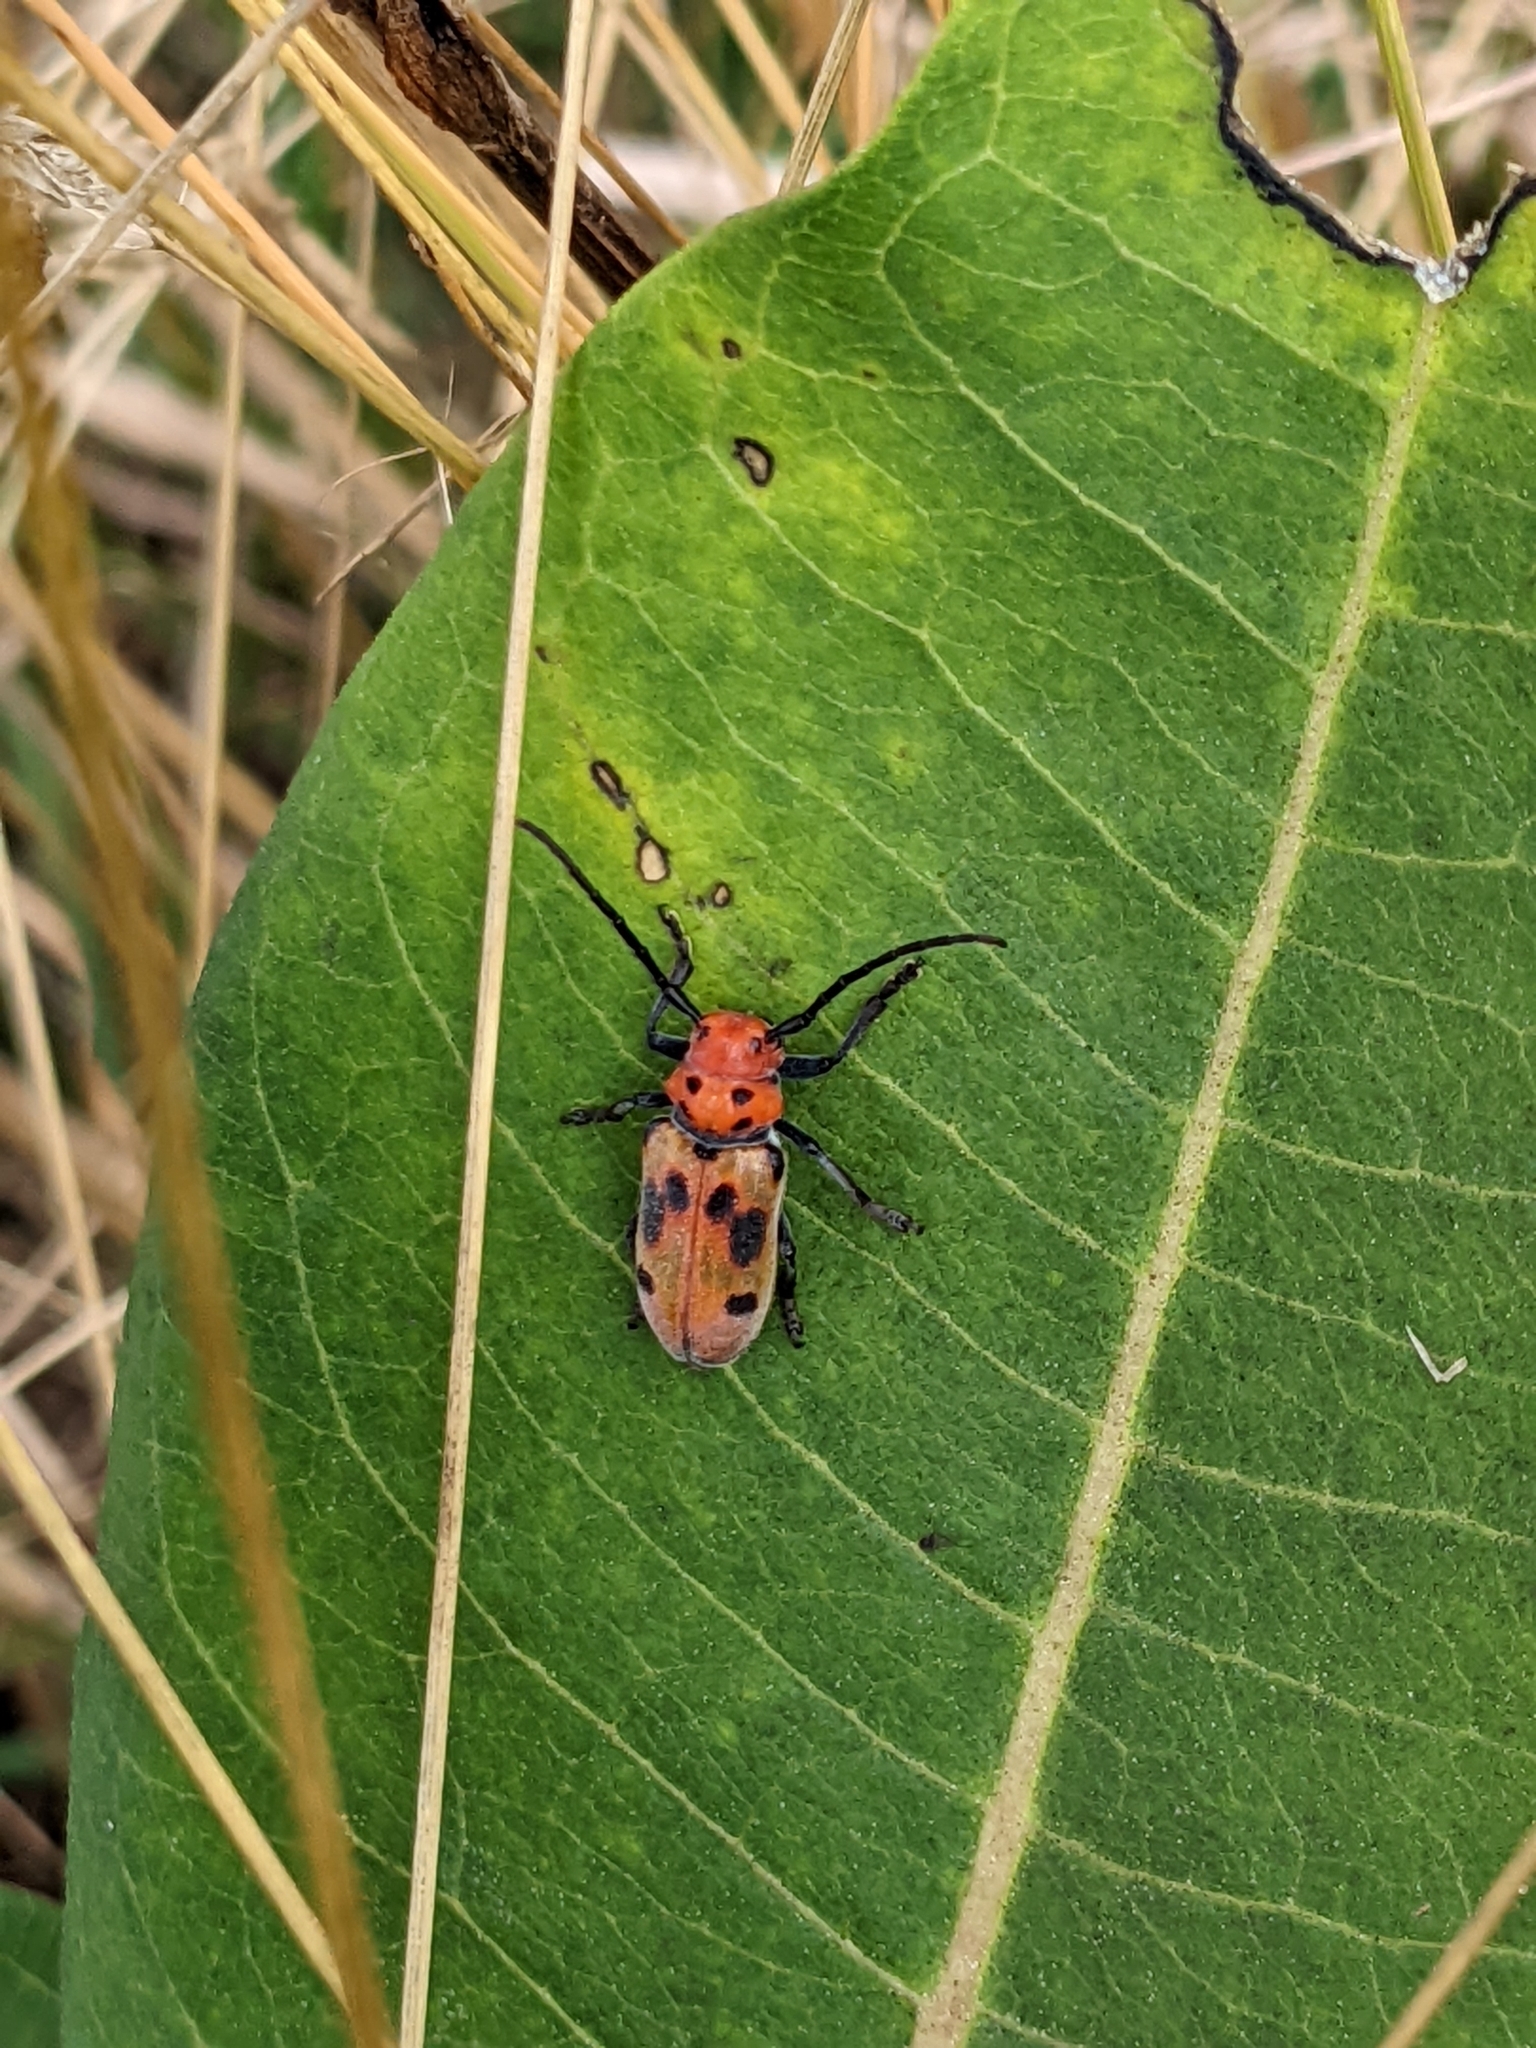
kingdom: Animalia
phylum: Arthropoda
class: Insecta
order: Coleoptera
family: Cerambycidae
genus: Tetraopes
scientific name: Tetraopes tetrophthalmus
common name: Red milkweed beetle
